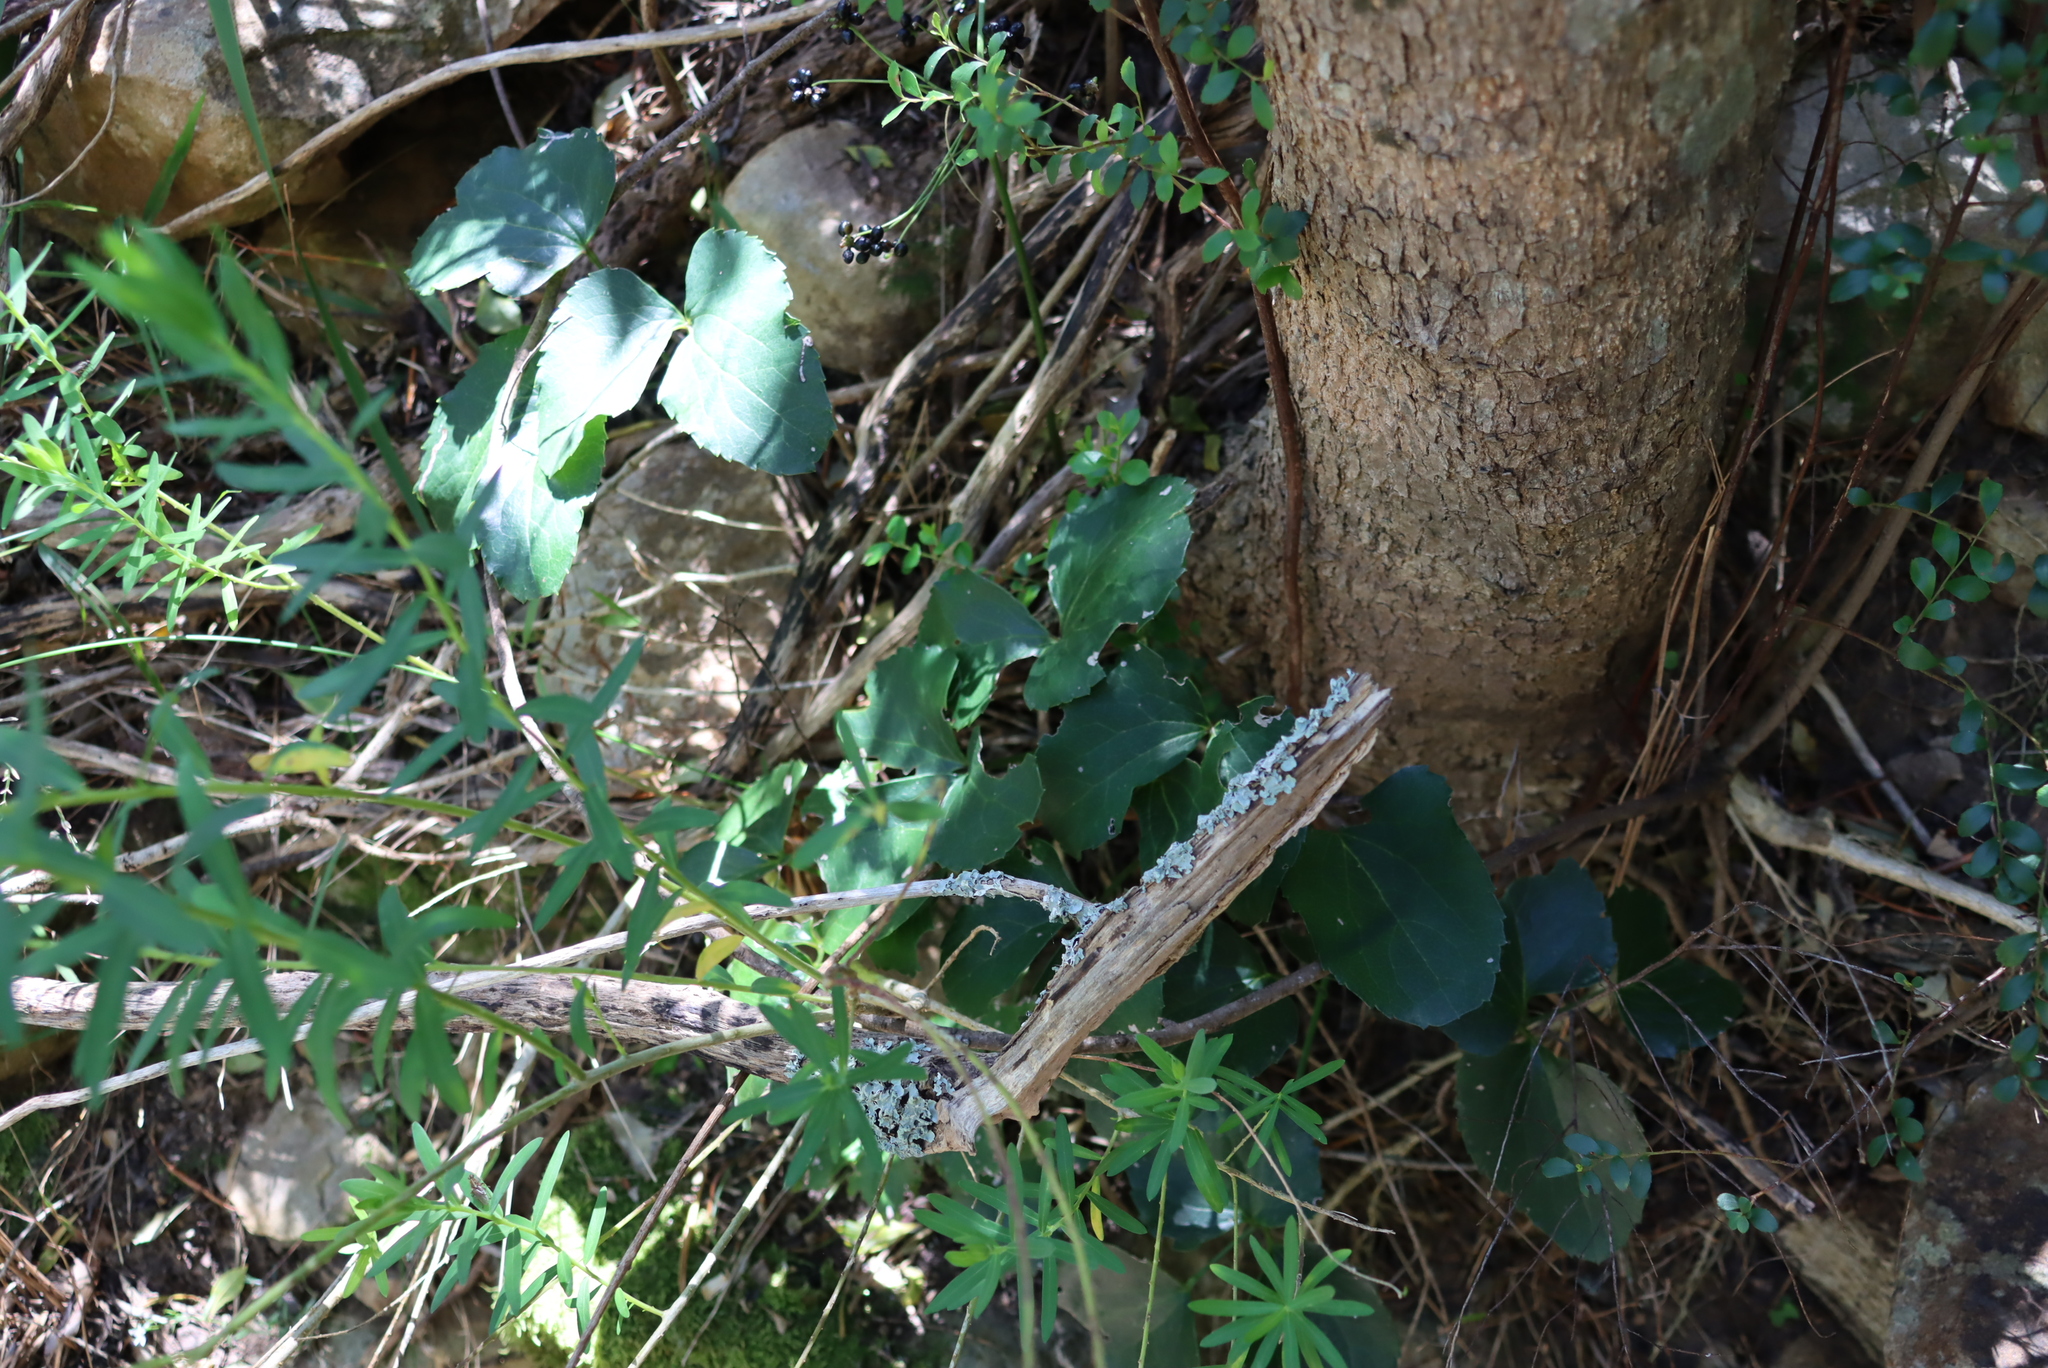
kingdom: Plantae
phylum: Tracheophyta
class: Magnoliopsida
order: Ranunculales
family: Ranunculaceae
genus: Knowltonia
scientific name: Knowltonia vesicatoria
